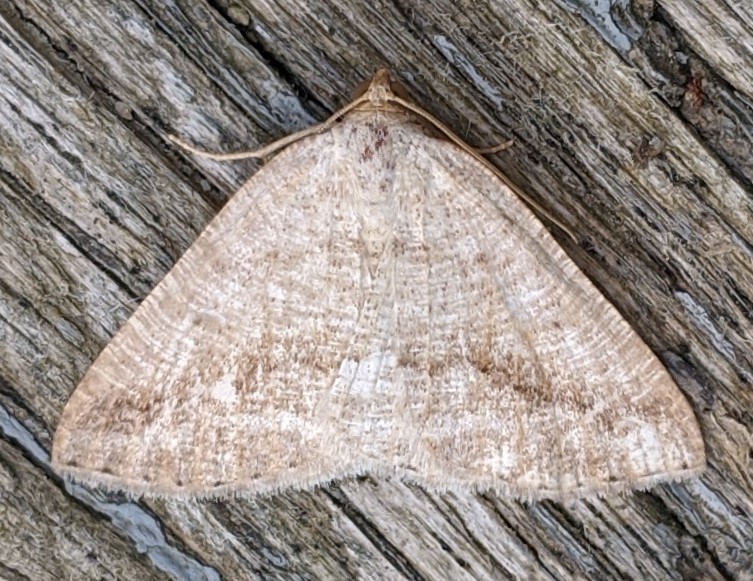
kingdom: Animalia
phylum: Arthropoda
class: Insecta
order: Lepidoptera
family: Geometridae
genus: Tacparia
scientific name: Tacparia detersata
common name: Pale alder moth
